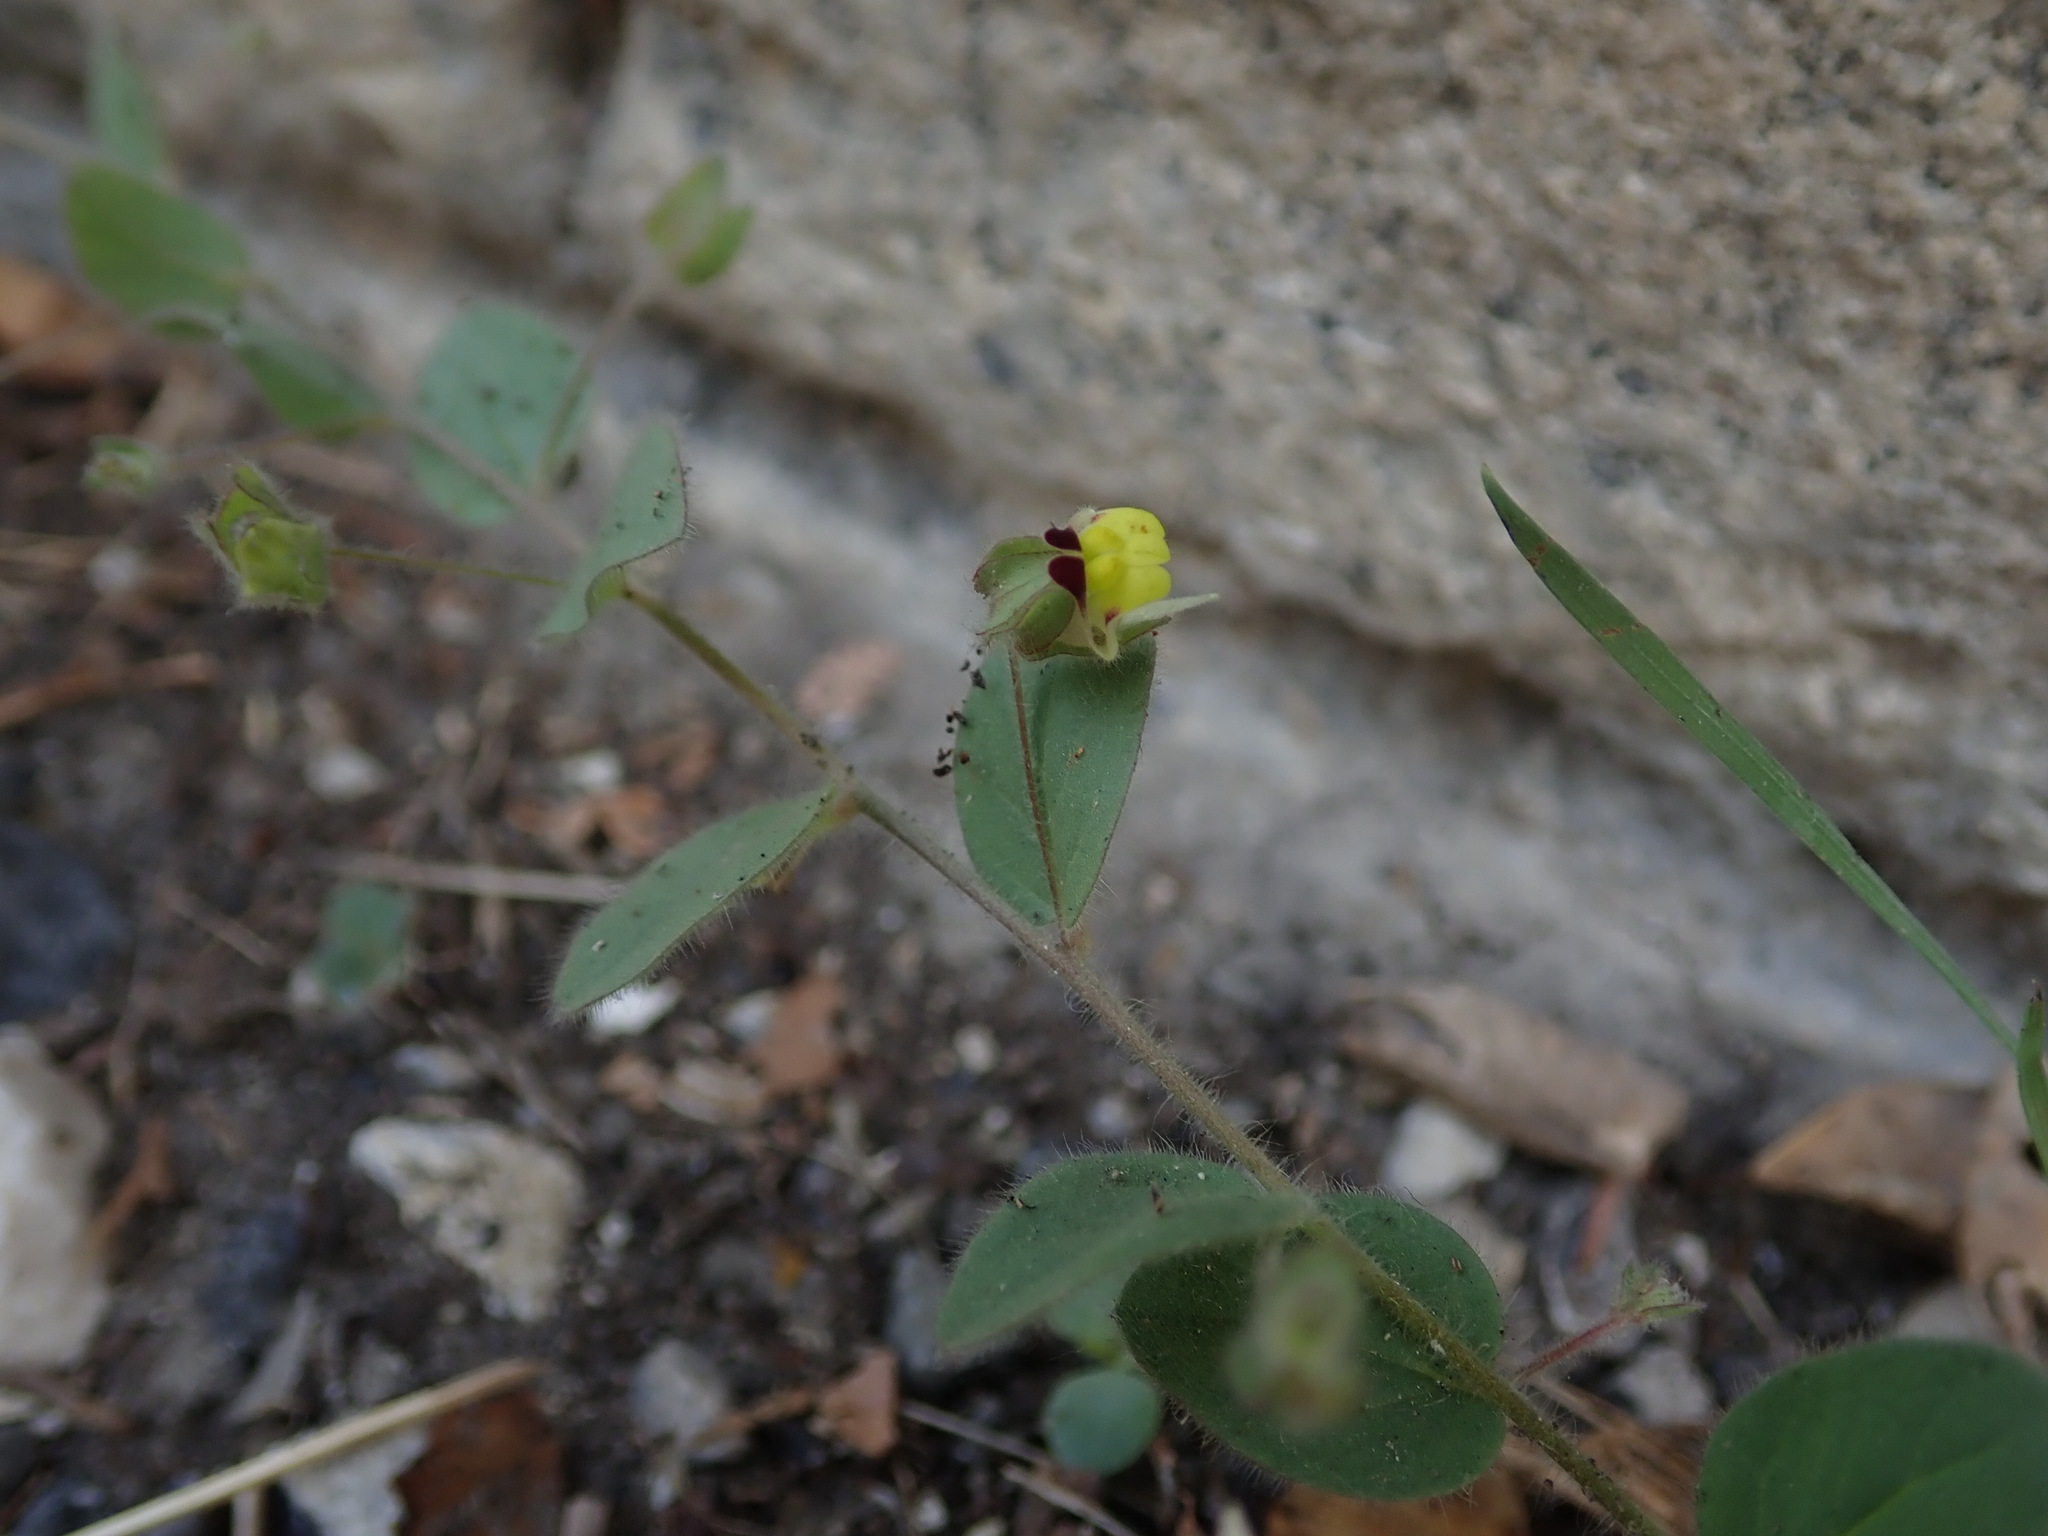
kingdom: Plantae
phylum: Tracheophyta
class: Magnoliopsida
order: Lamiales
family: Plantaginaceae
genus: Kickxia
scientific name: Kickxia spuria
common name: Round-leaved fluellen
